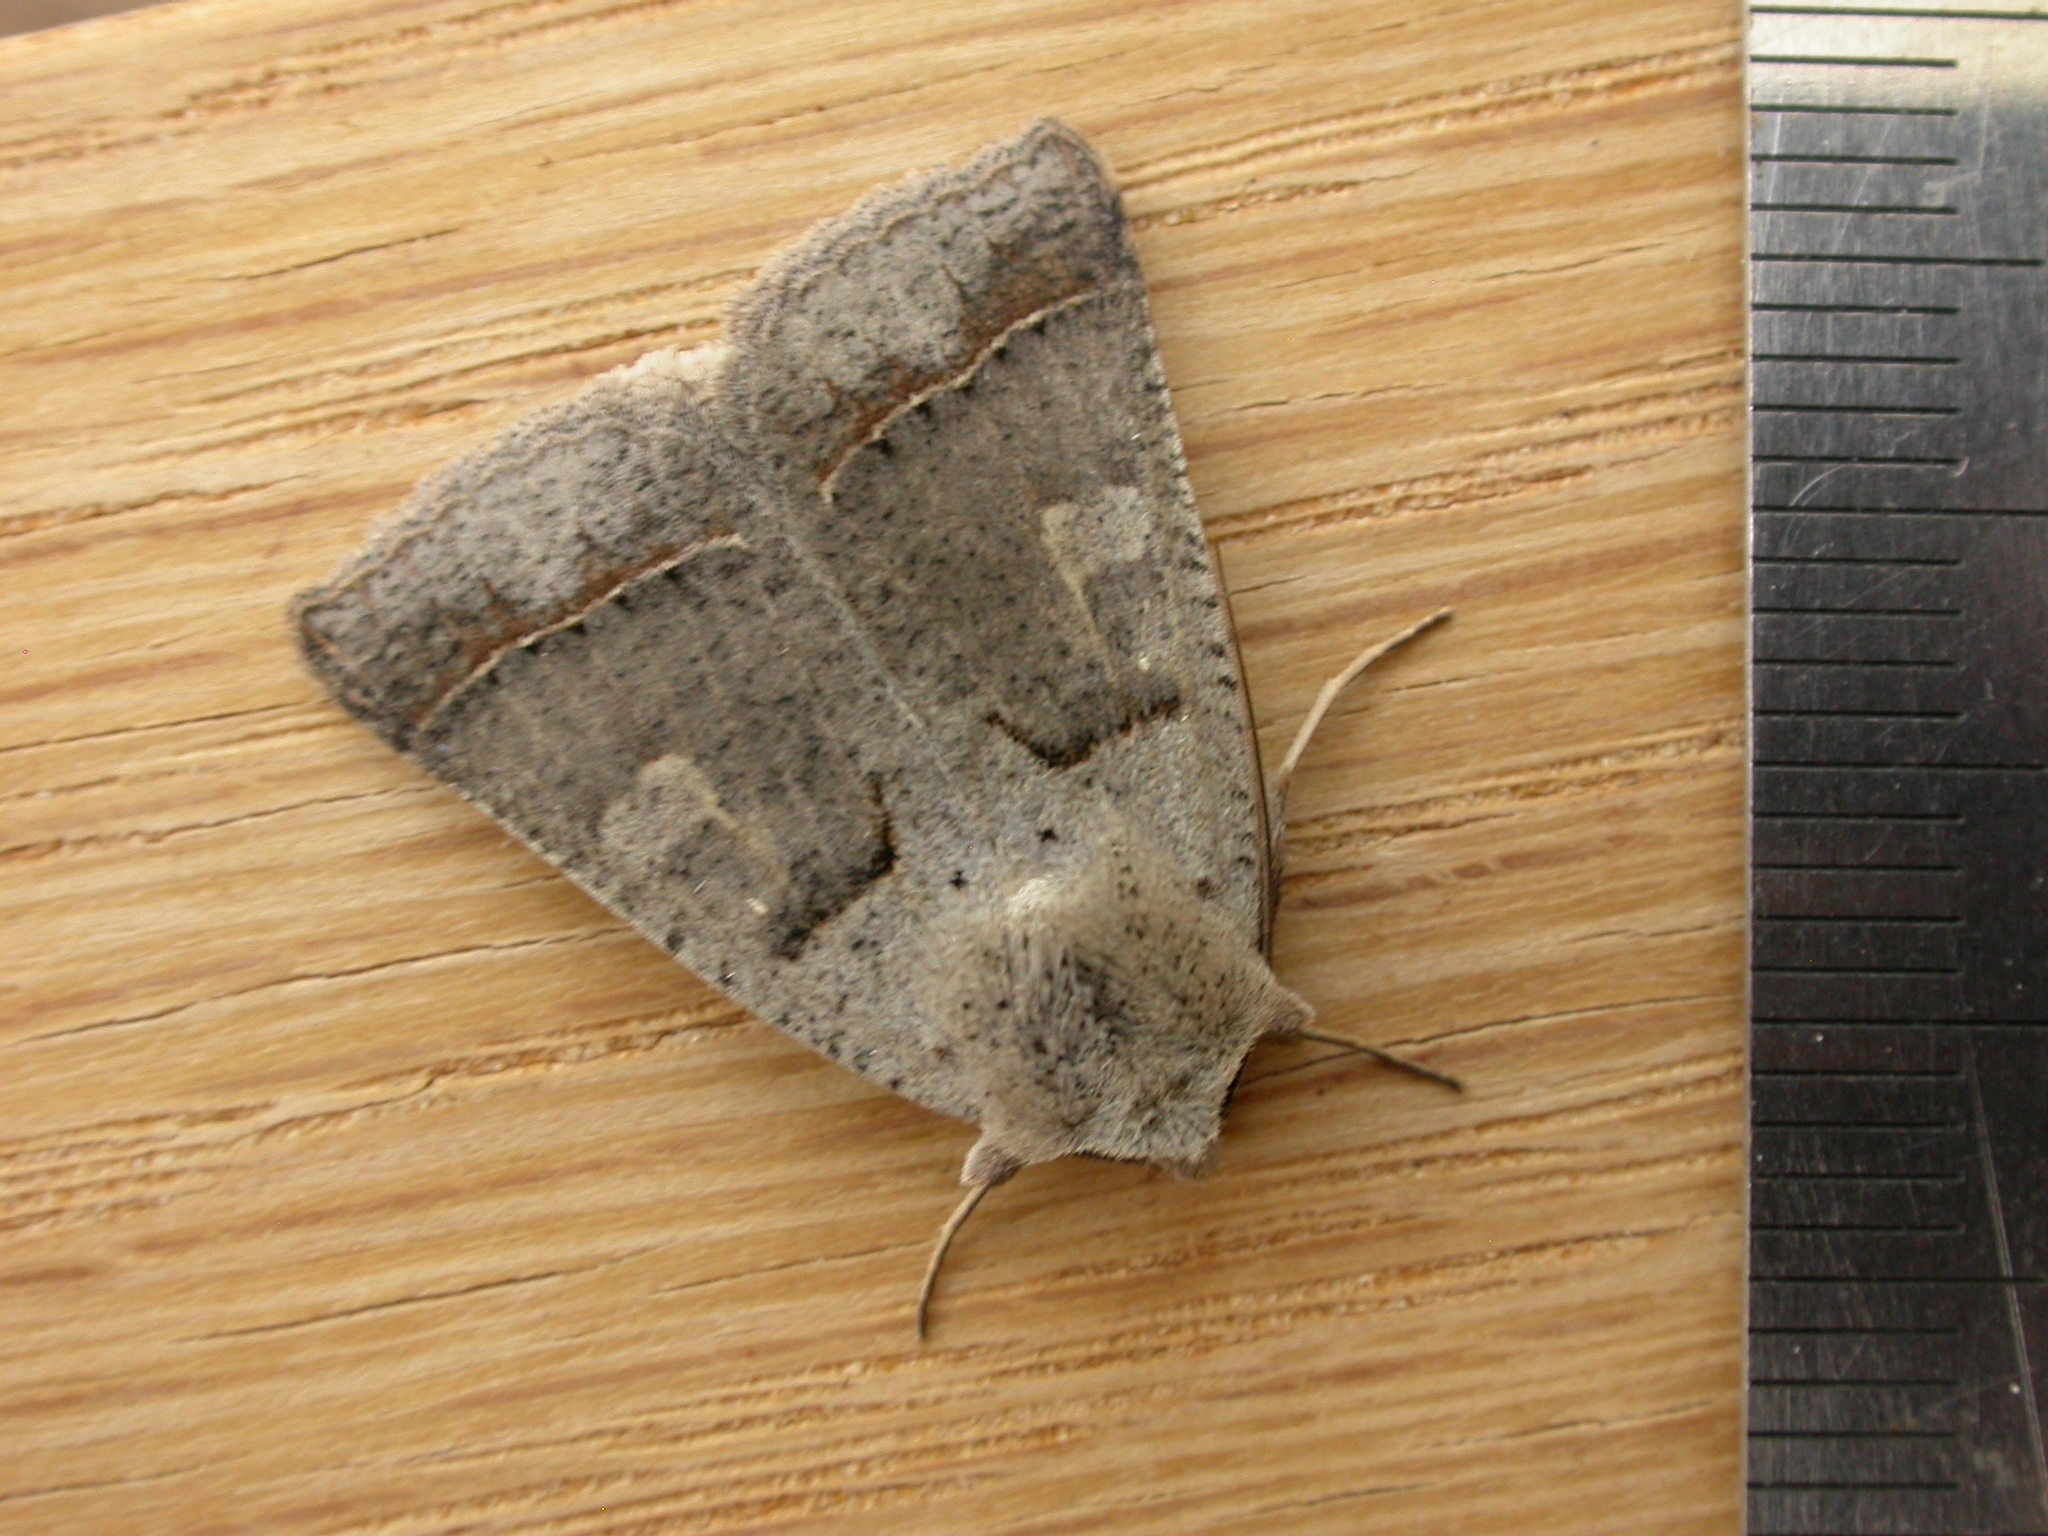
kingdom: Animalia
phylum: Arthropoda
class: Insecta
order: Lepidoptera
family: Erebidae
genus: Pantydia
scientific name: Pantydia sparsa
